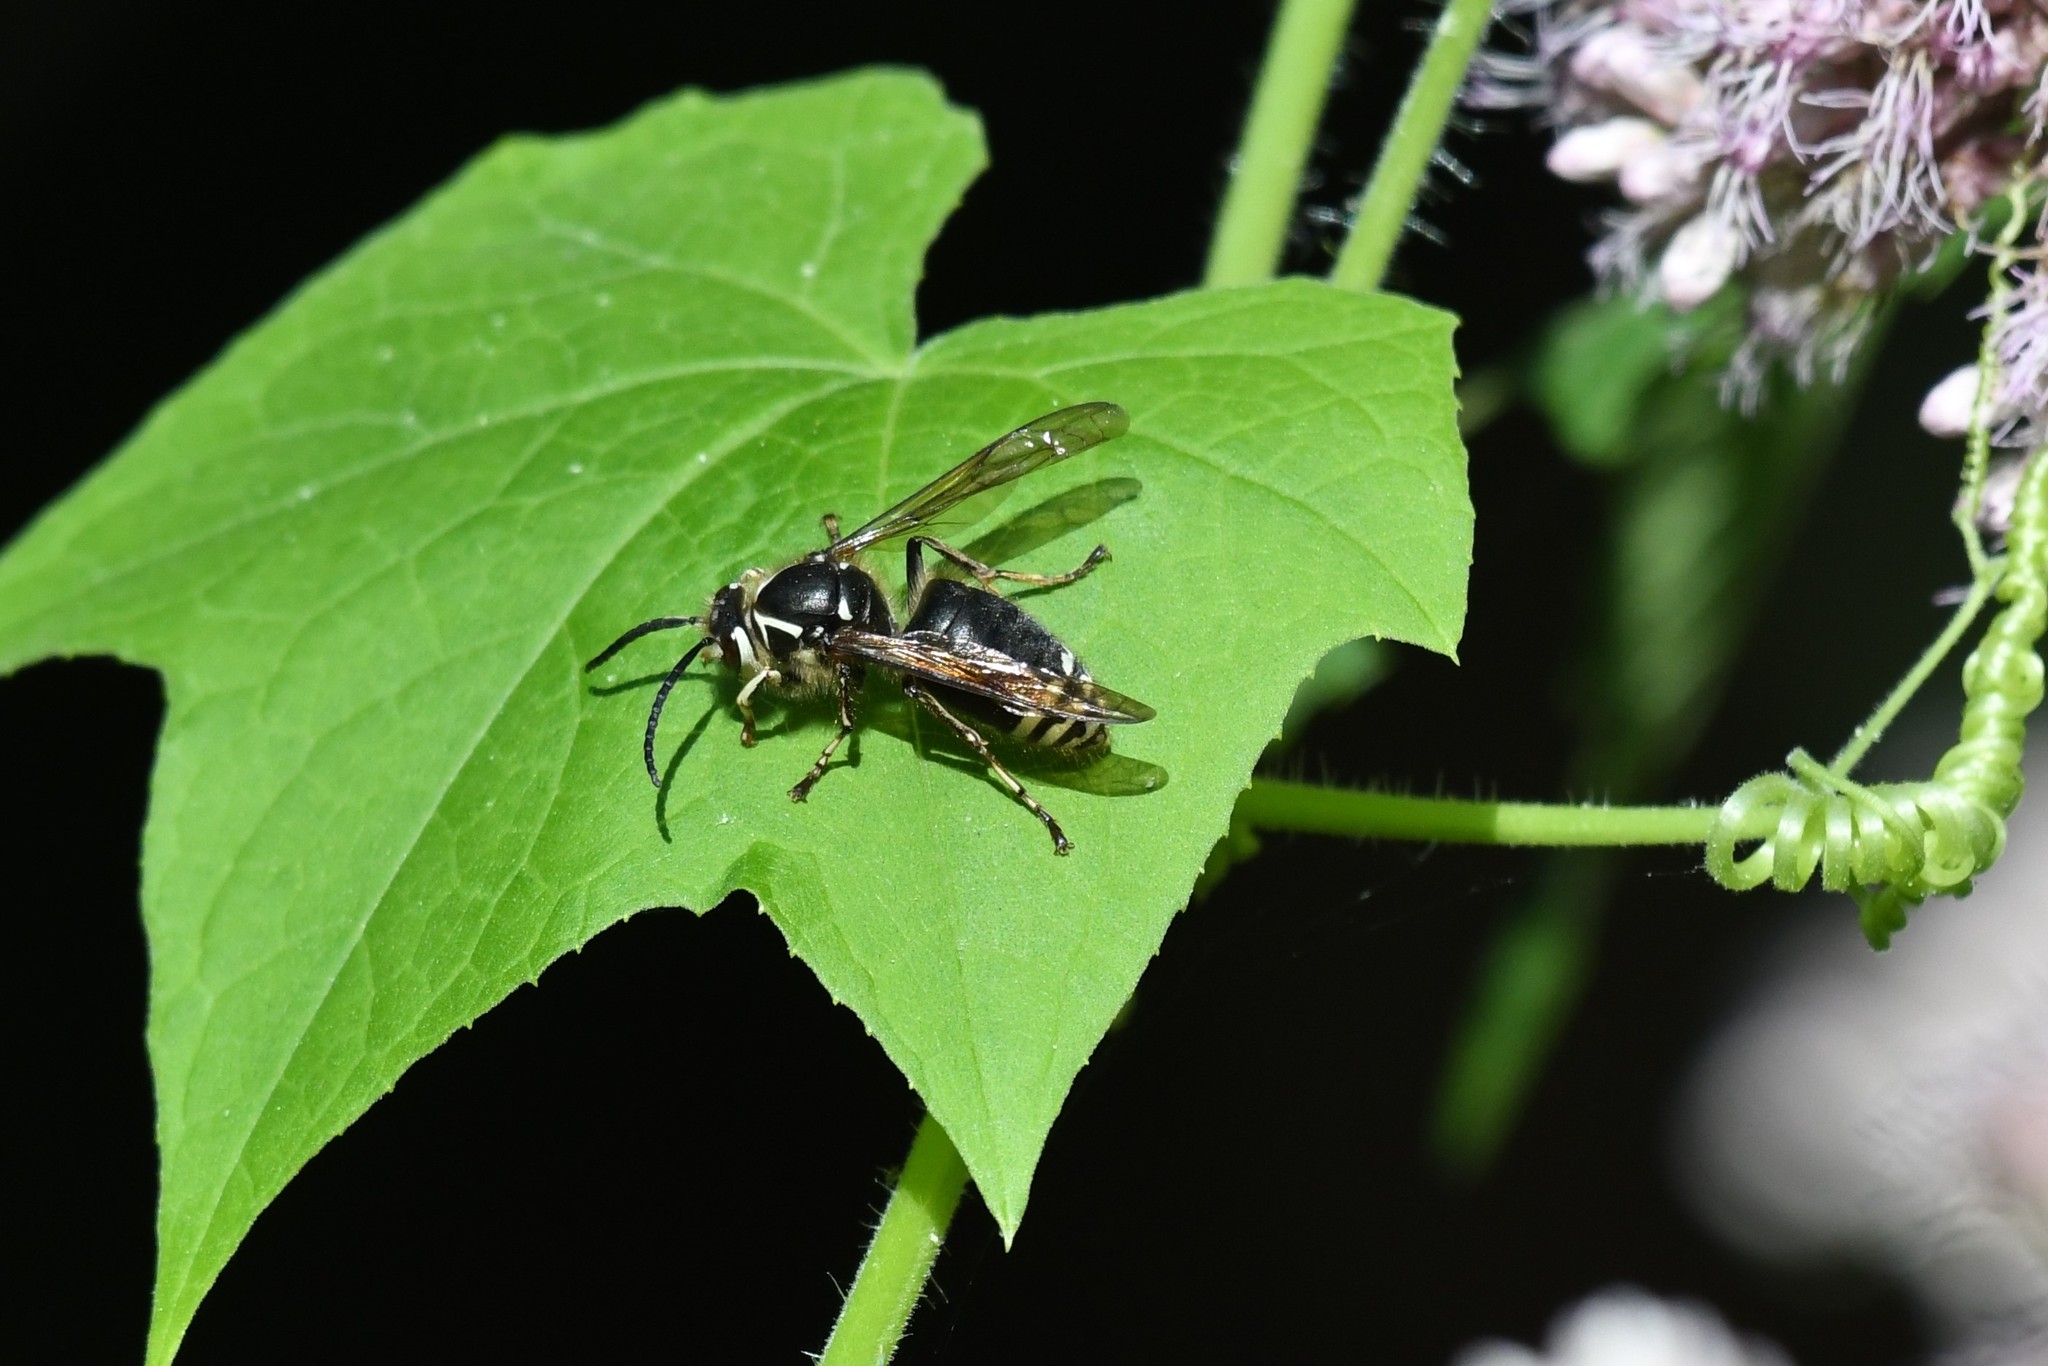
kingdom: Animalia
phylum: Arthropoda
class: Insecta
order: Hymenoptera
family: Vespidae
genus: Dolichovespula
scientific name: Dolichovespula maculata
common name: Bald-faced hornet
